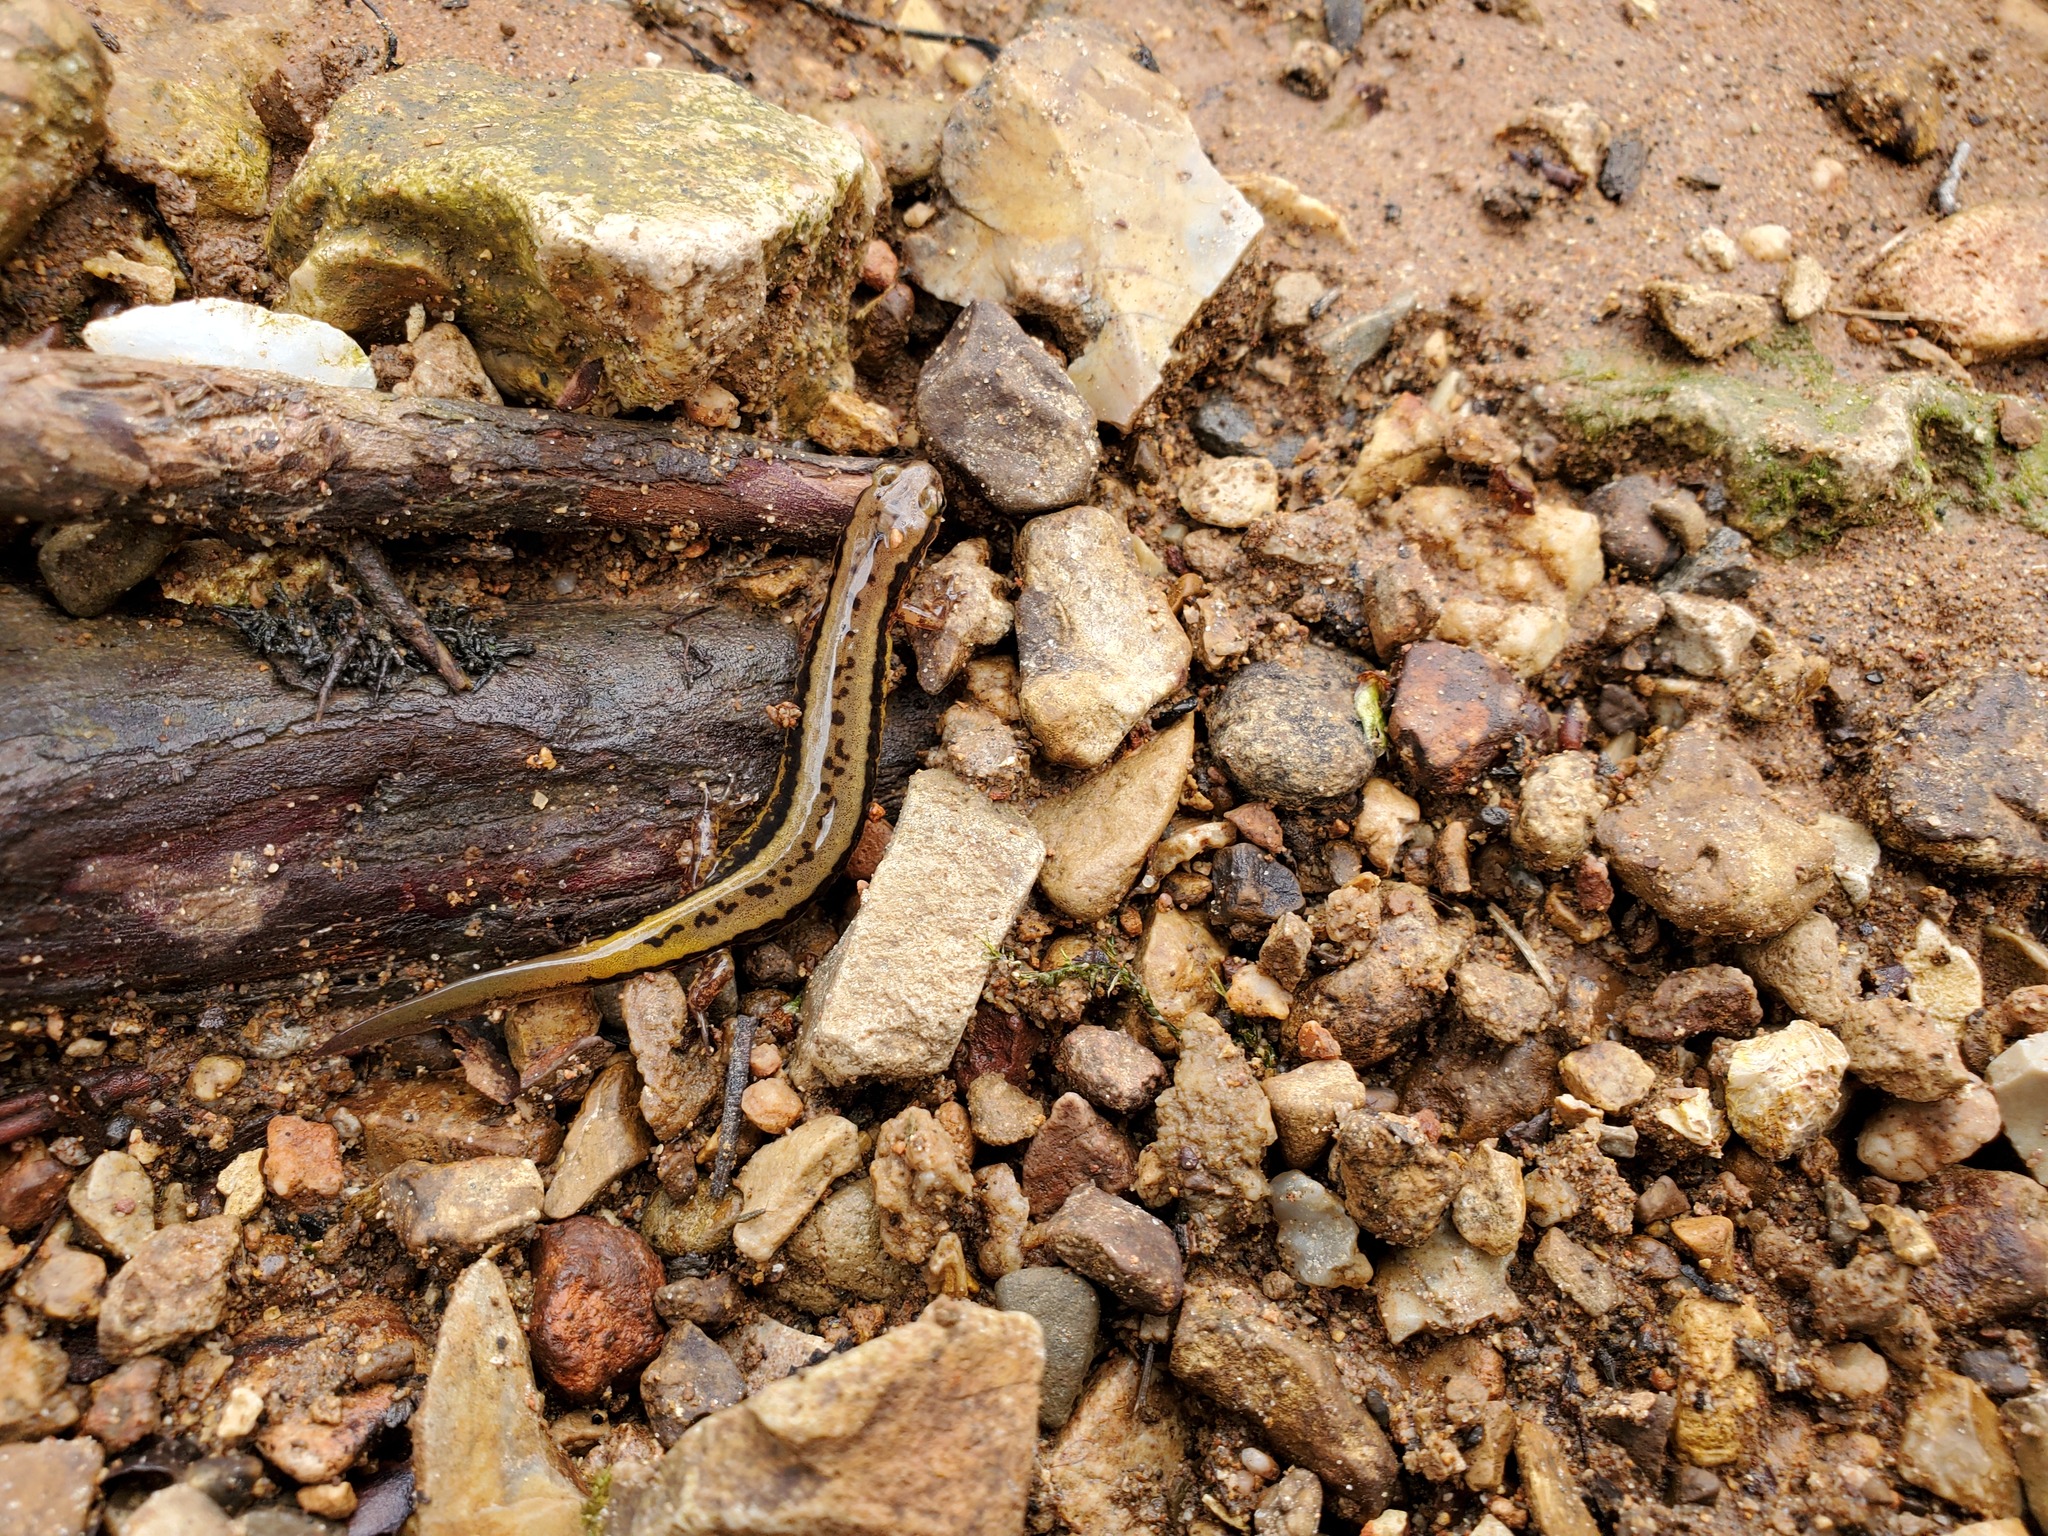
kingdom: Animalia
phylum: Chordata
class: Amphibia
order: Caudata
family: Plethodontidae
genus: Eurycea
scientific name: Eurycea cirrigera
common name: Southern two-lined salamander
